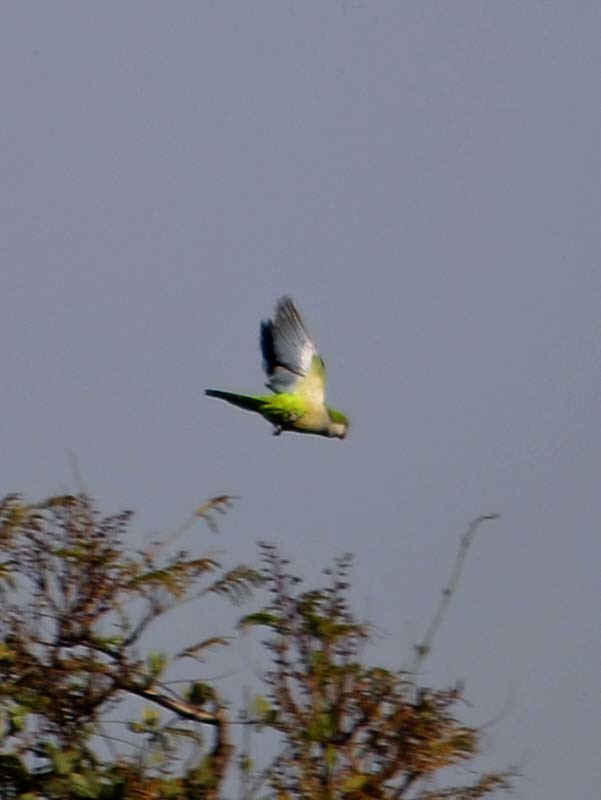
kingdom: Animalia
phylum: Chordata
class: Aves
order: Psittaciformes
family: Psittacidae
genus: Myiopsitta
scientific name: Myiopsitta monachus
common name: Monk parakeet
